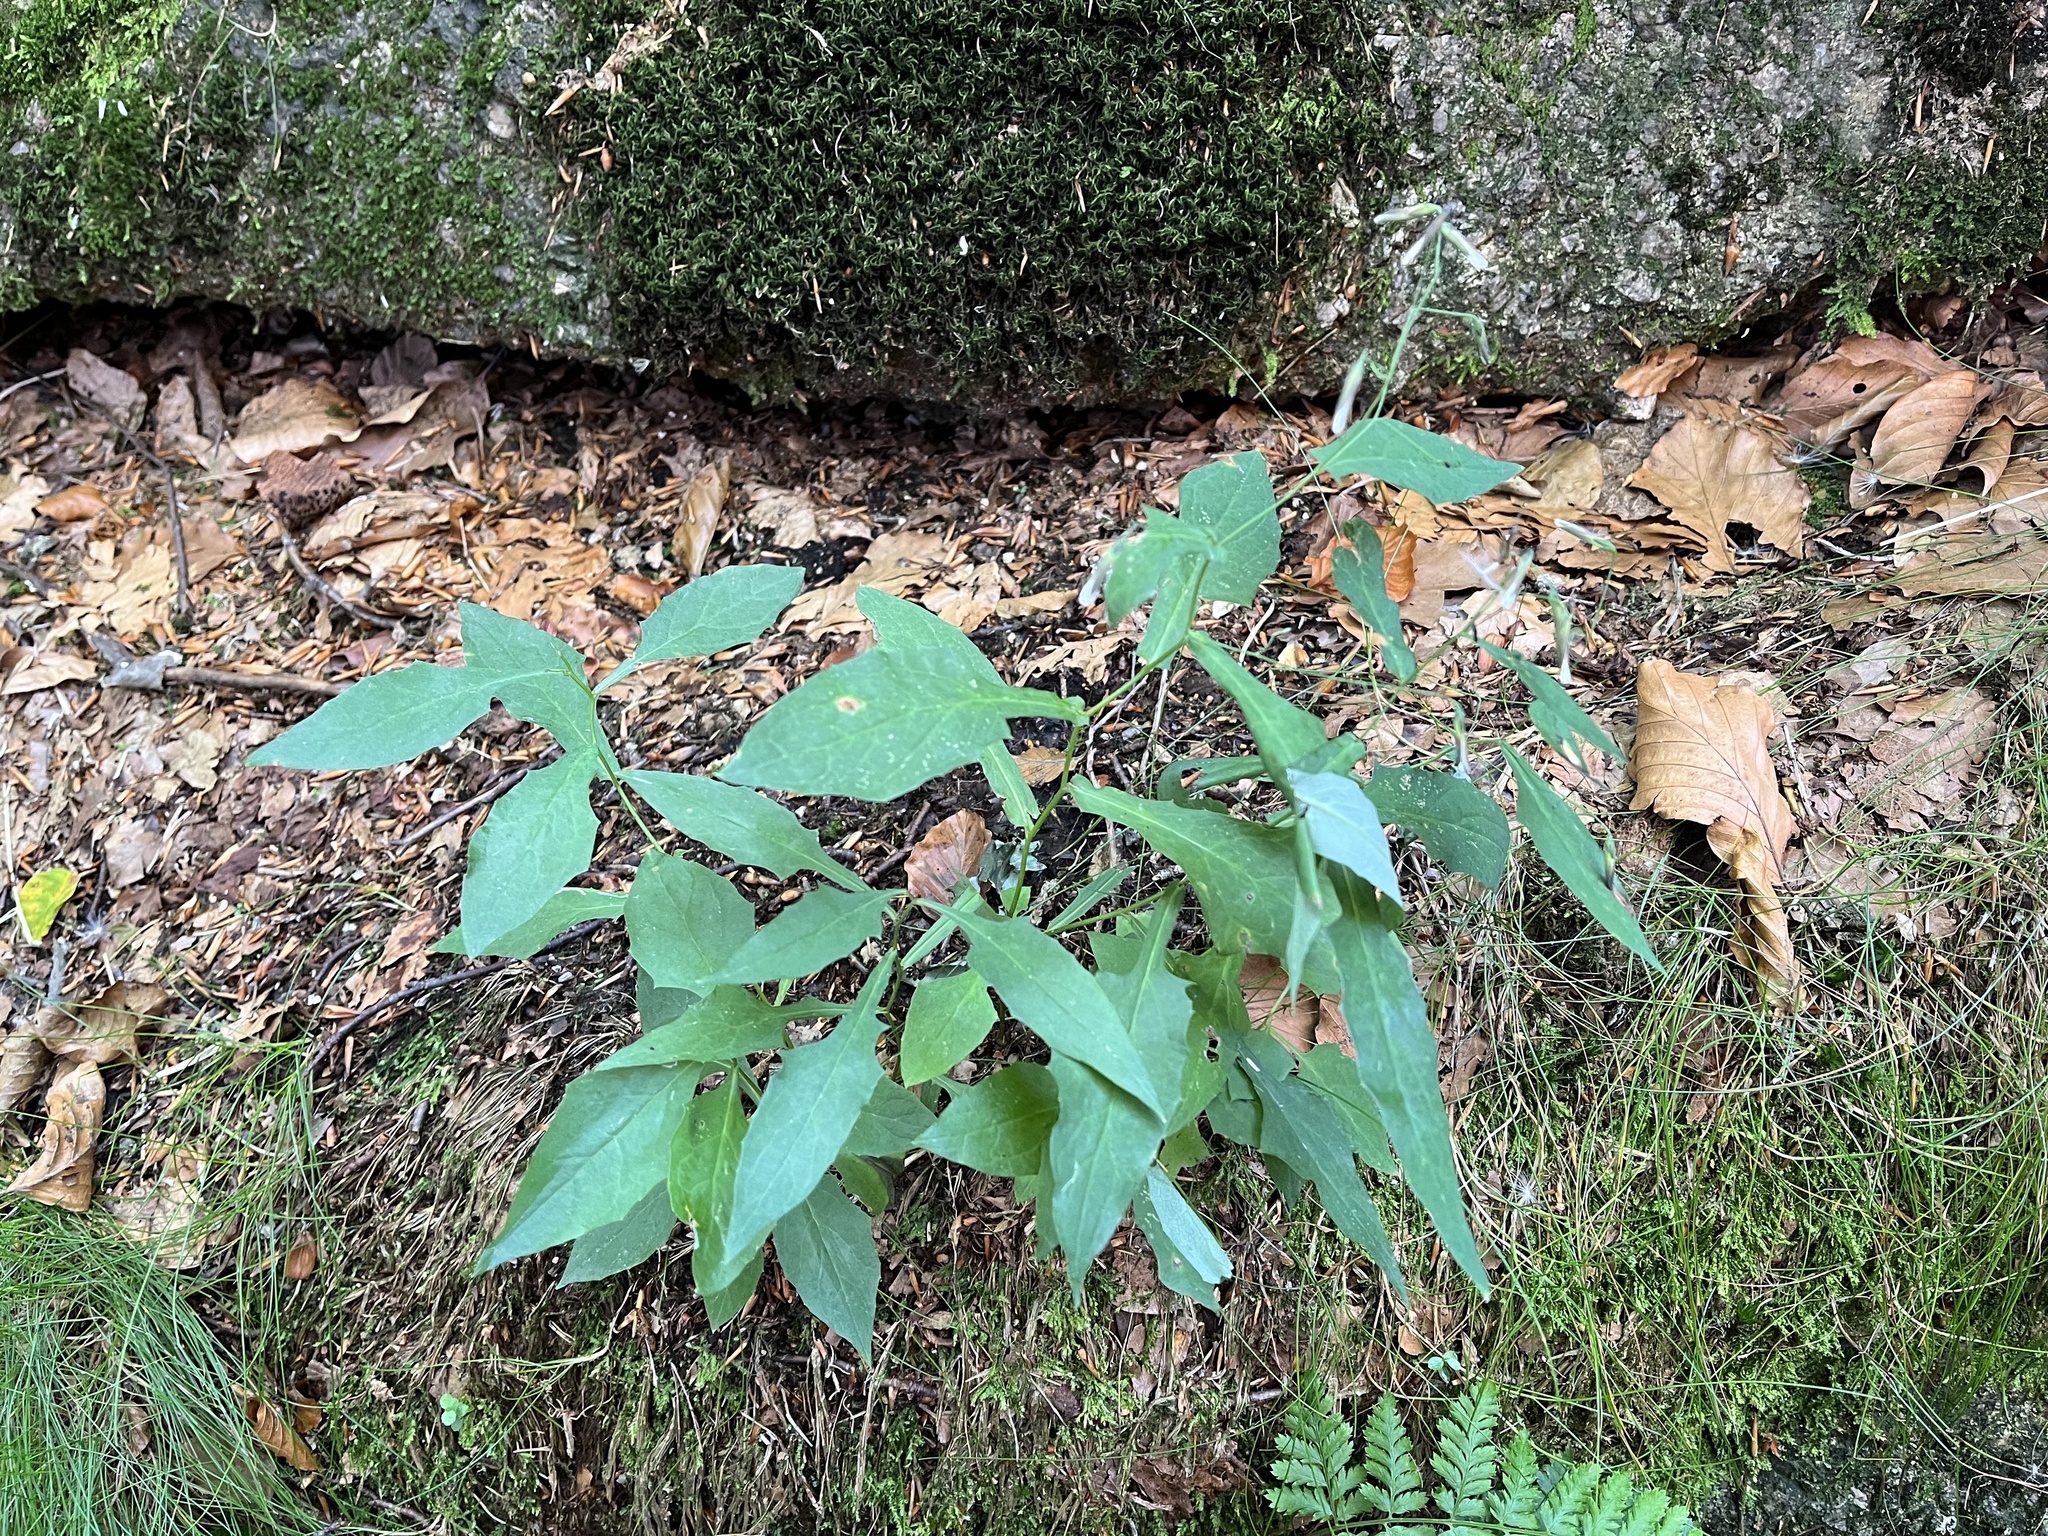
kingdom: Plantae
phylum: Tracheophyta
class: Magnoliopsida
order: Asterales
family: Asteraceae
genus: Prenanthes
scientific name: Prenanthes purpurea
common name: Purple lettuce
